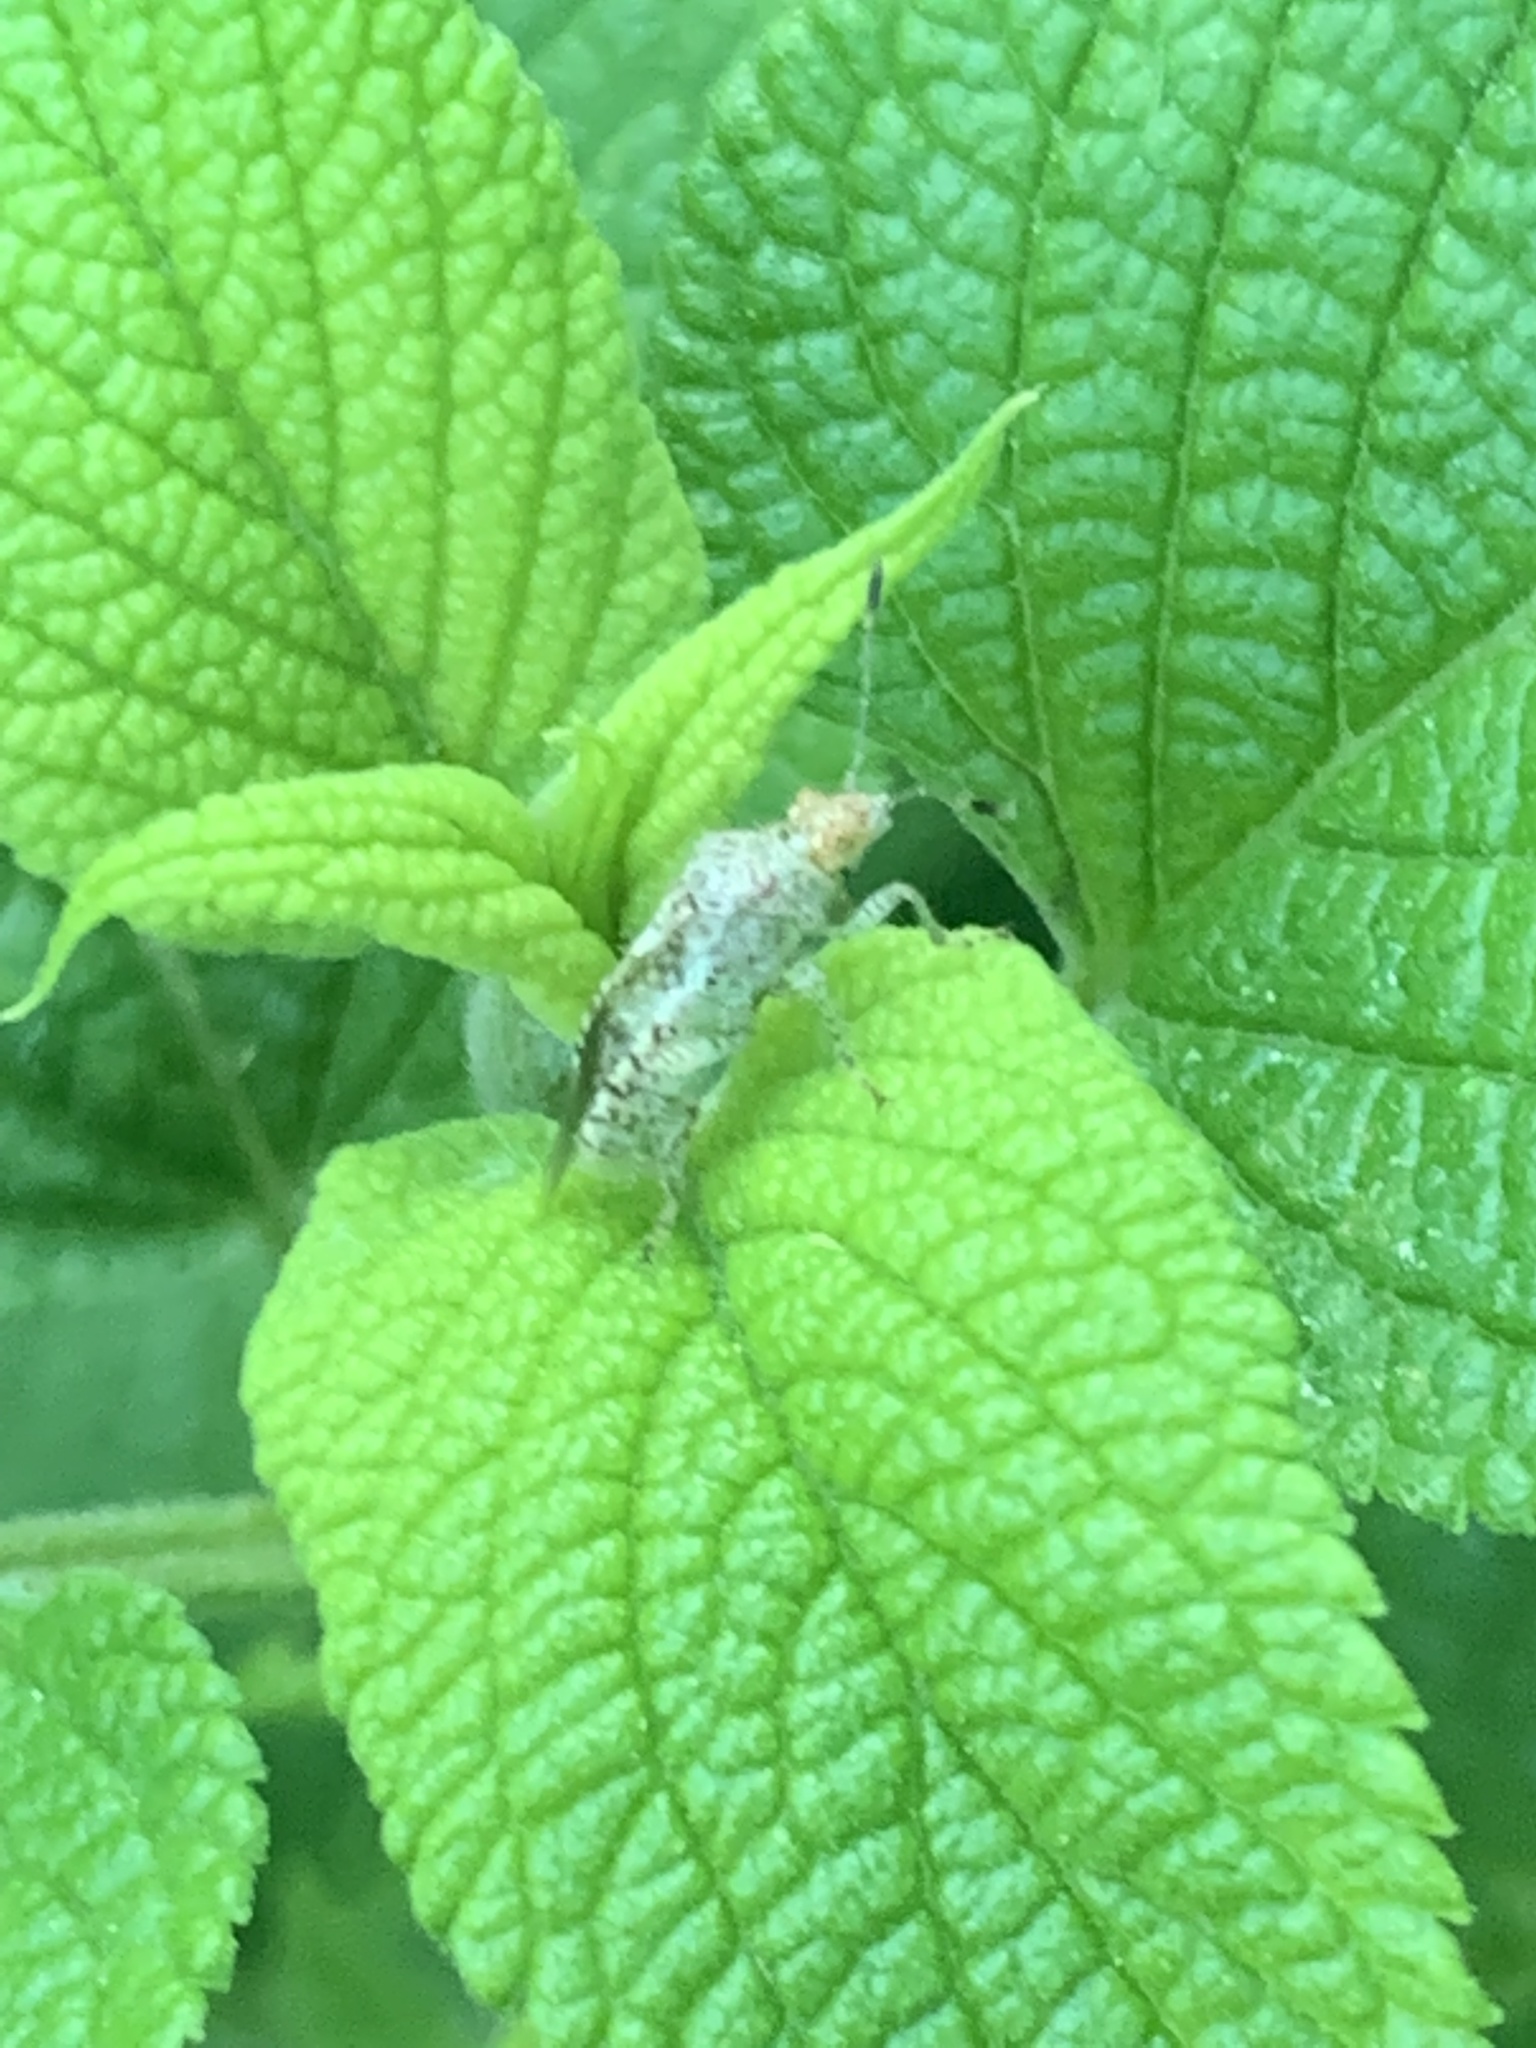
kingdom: Animalia
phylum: Arthropoda
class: Insecta
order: Hemiptera
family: Rhopalidae
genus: Niesthrea
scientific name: Niesthrea
